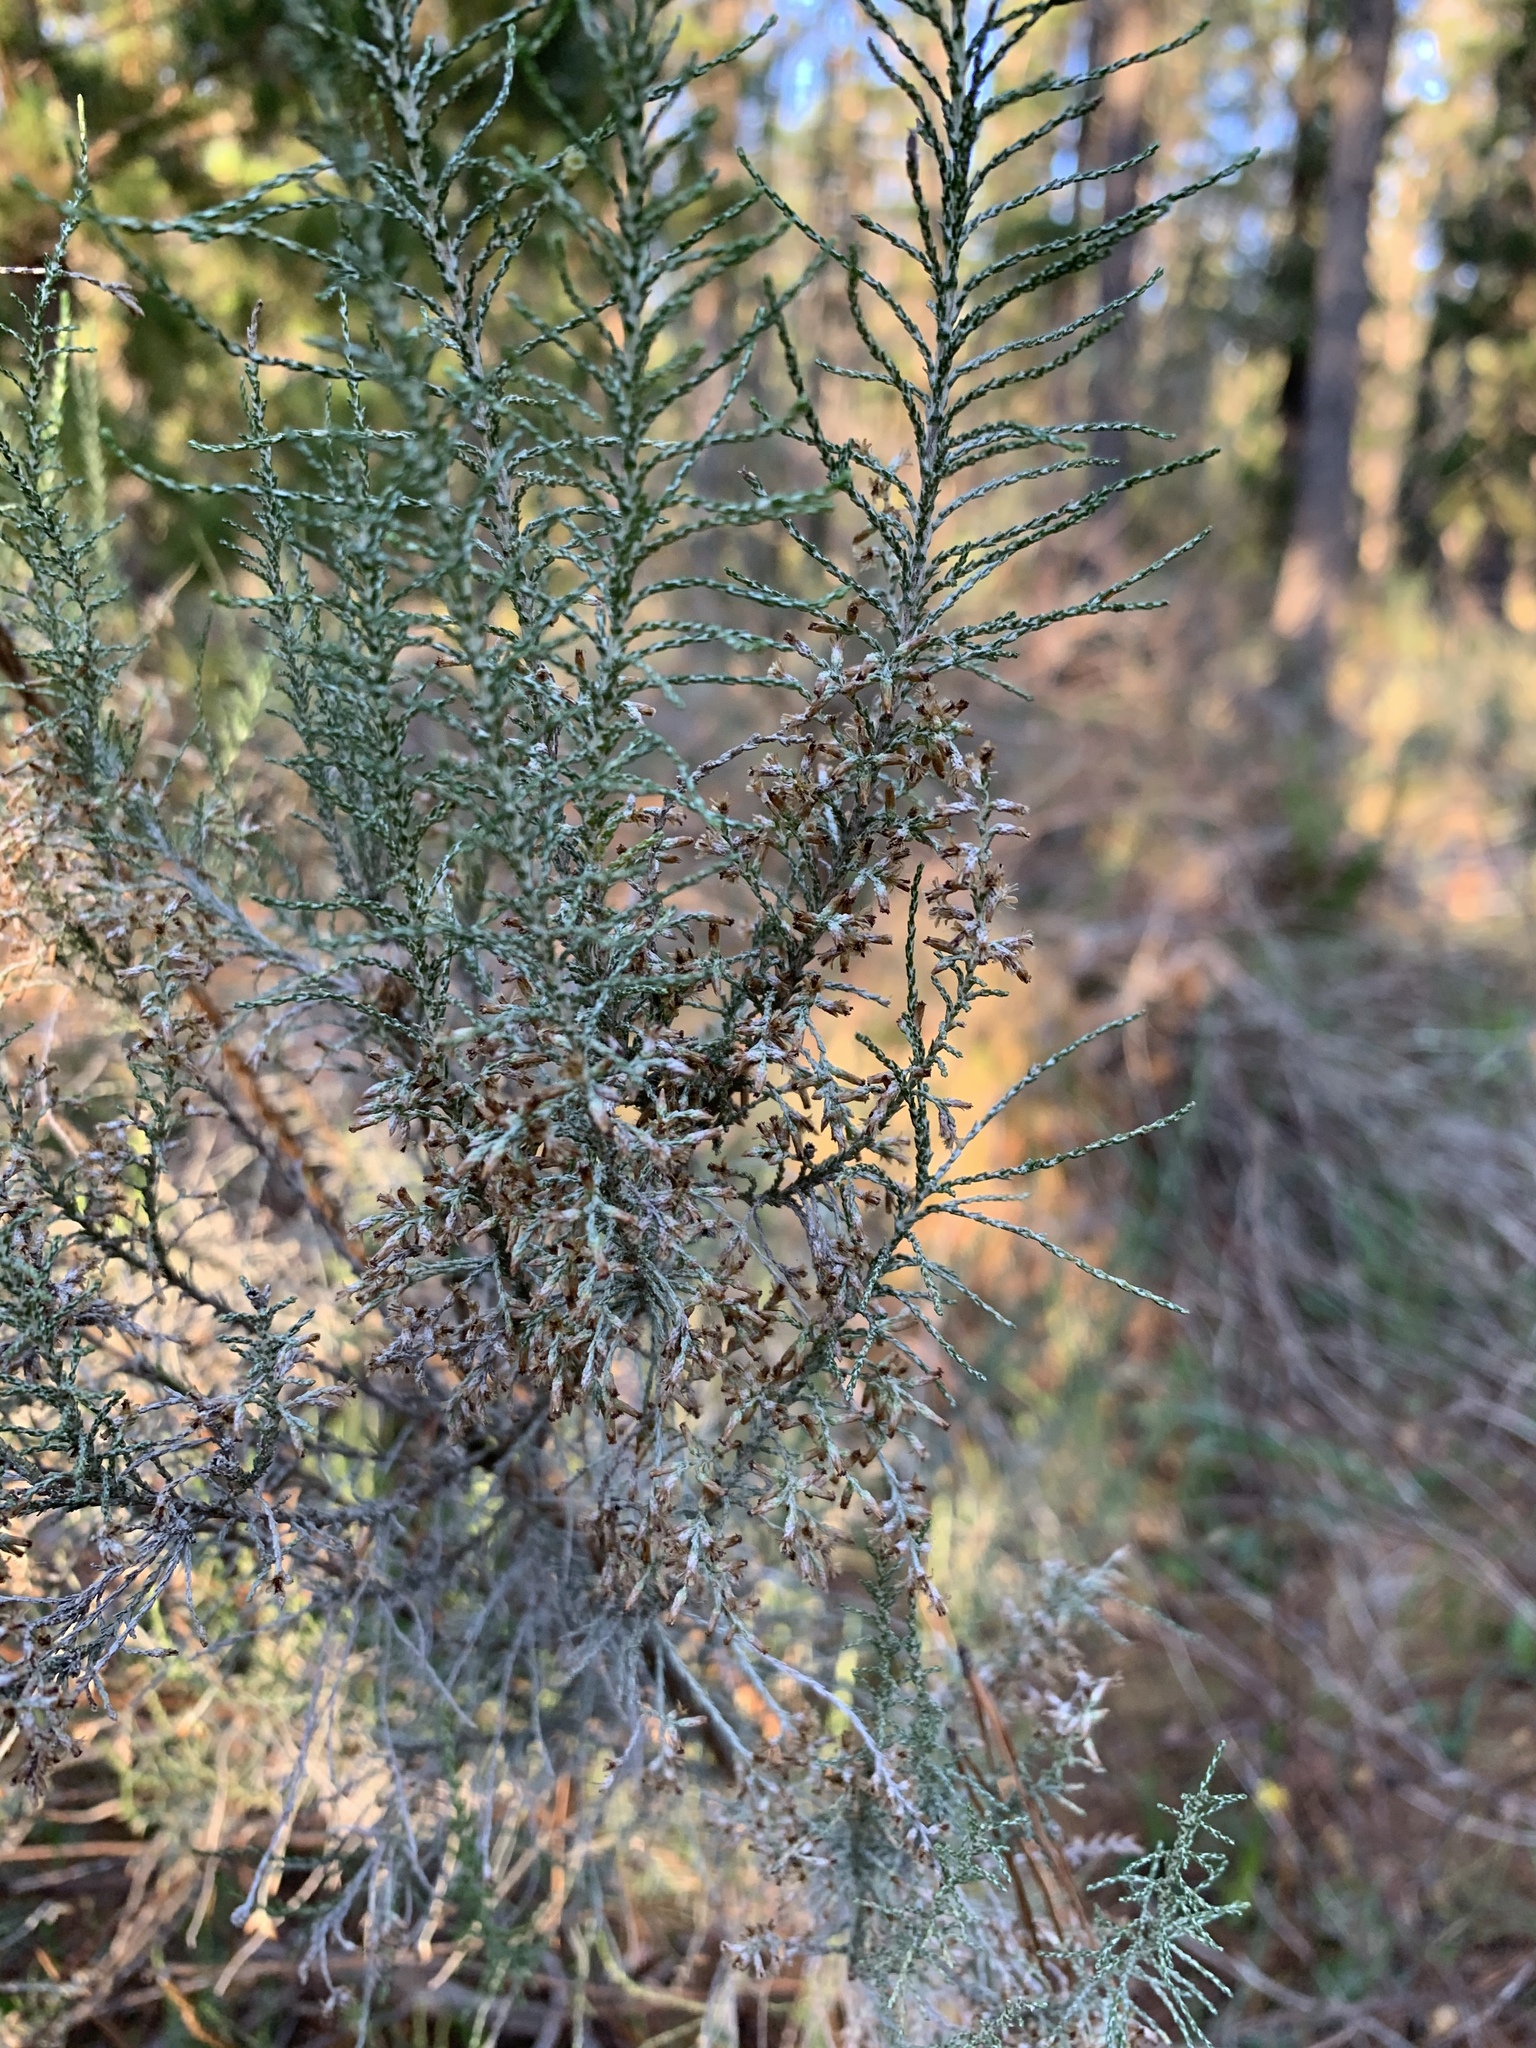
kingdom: Plantae
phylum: Tracheophyta
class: Magnoliopsida
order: Asterales
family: Asteraceae
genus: Dicerothamnus
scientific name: Dicerothamnus rhinocerotis
